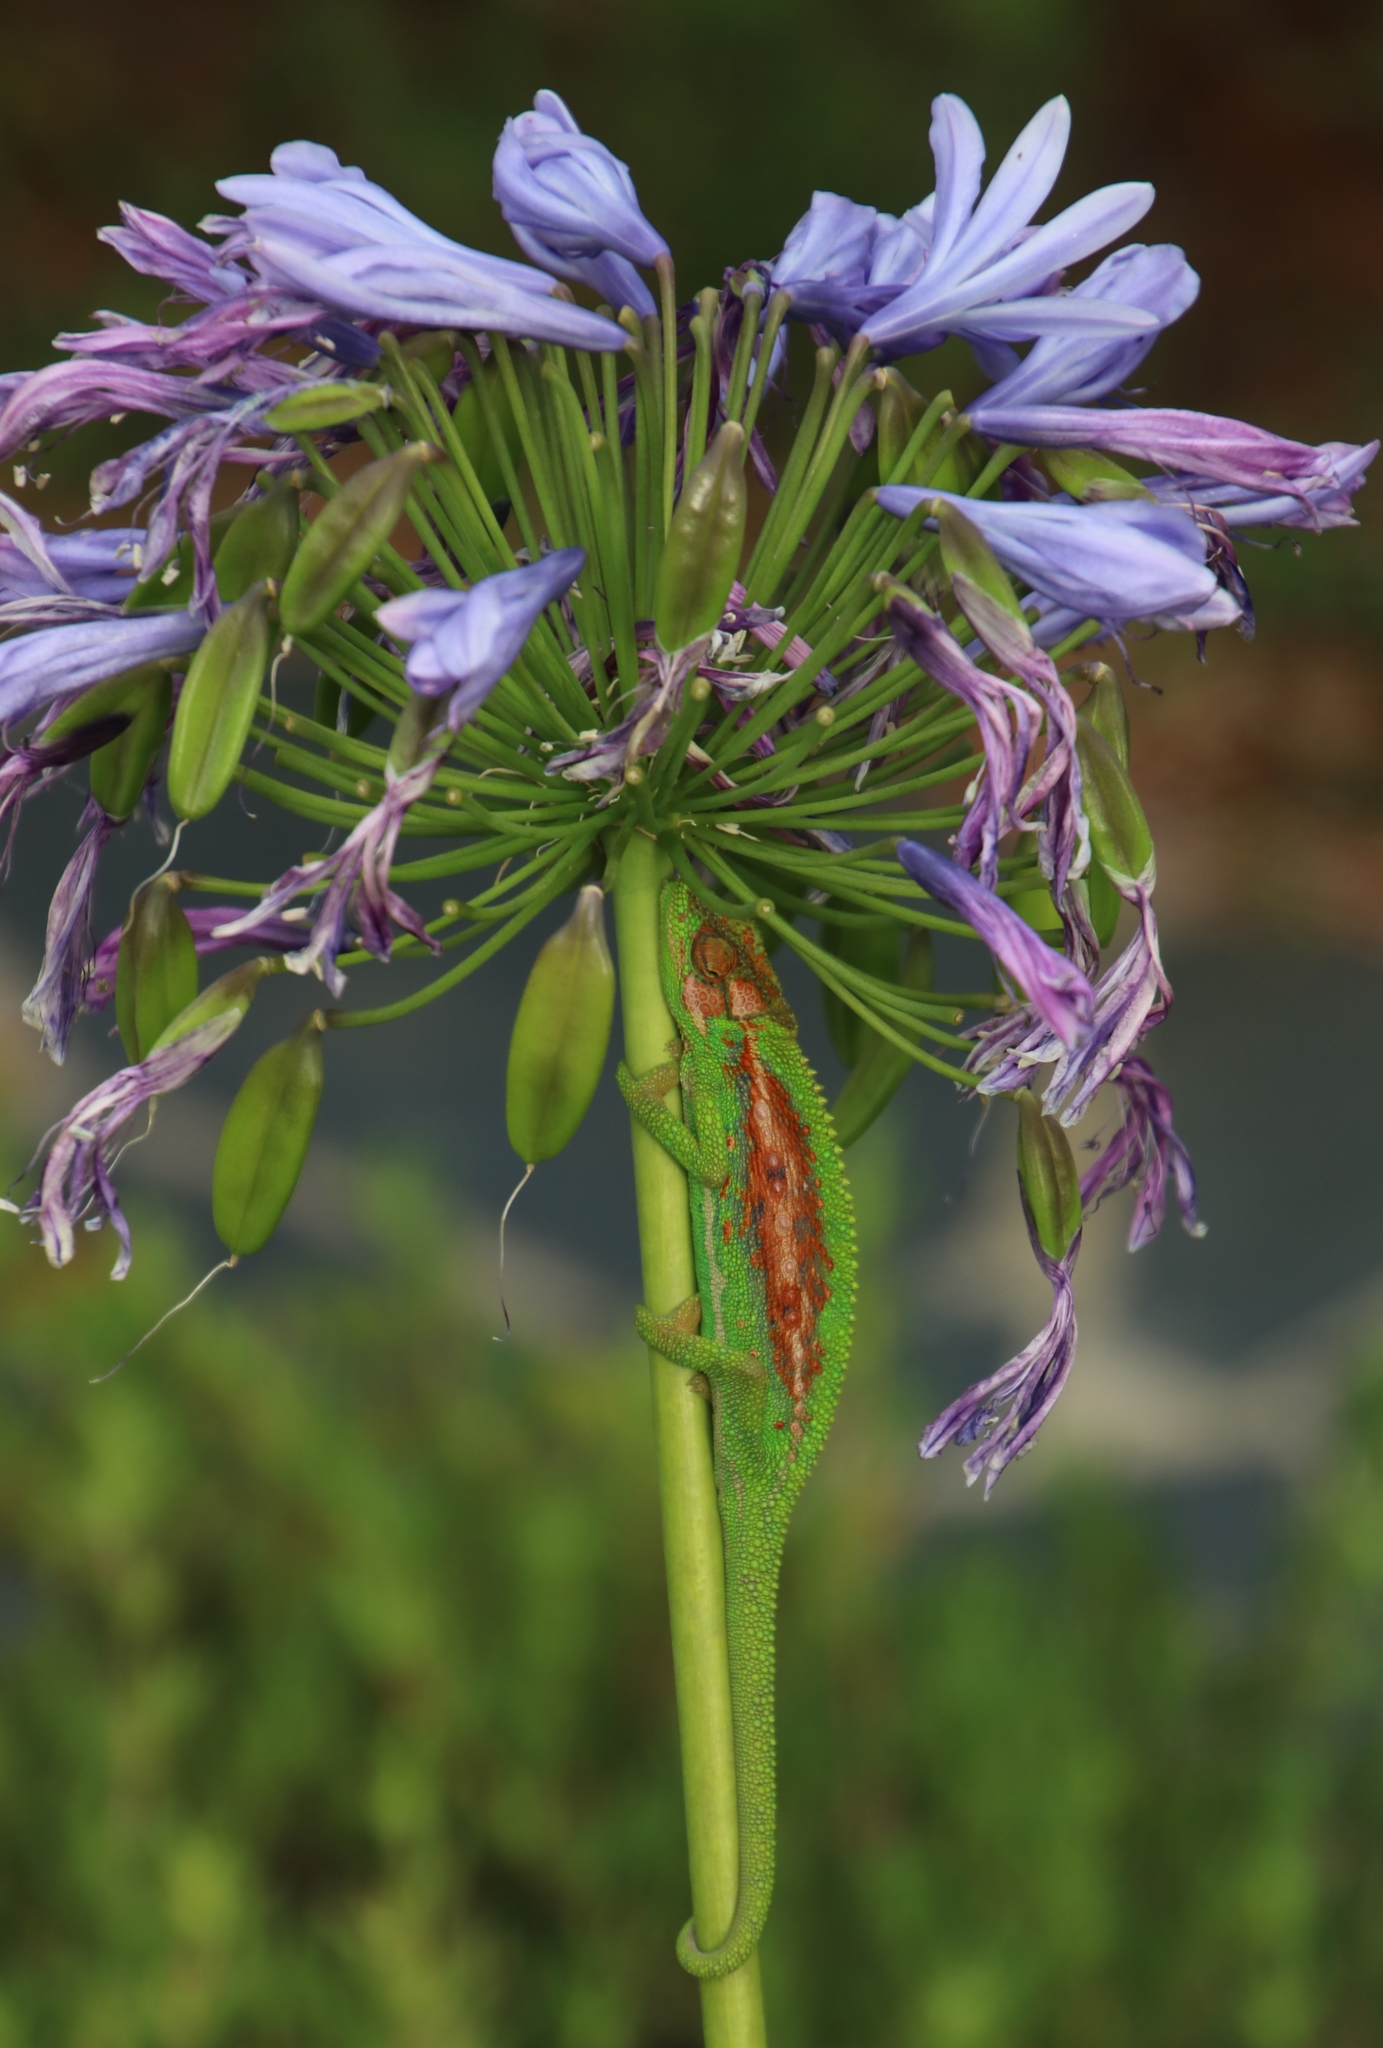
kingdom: Animalia
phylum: Chordata
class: Squamata
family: Chamaeleonidae
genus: Bradypodion
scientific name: Bradypodion pumilum
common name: Cape dwarf chameleon
